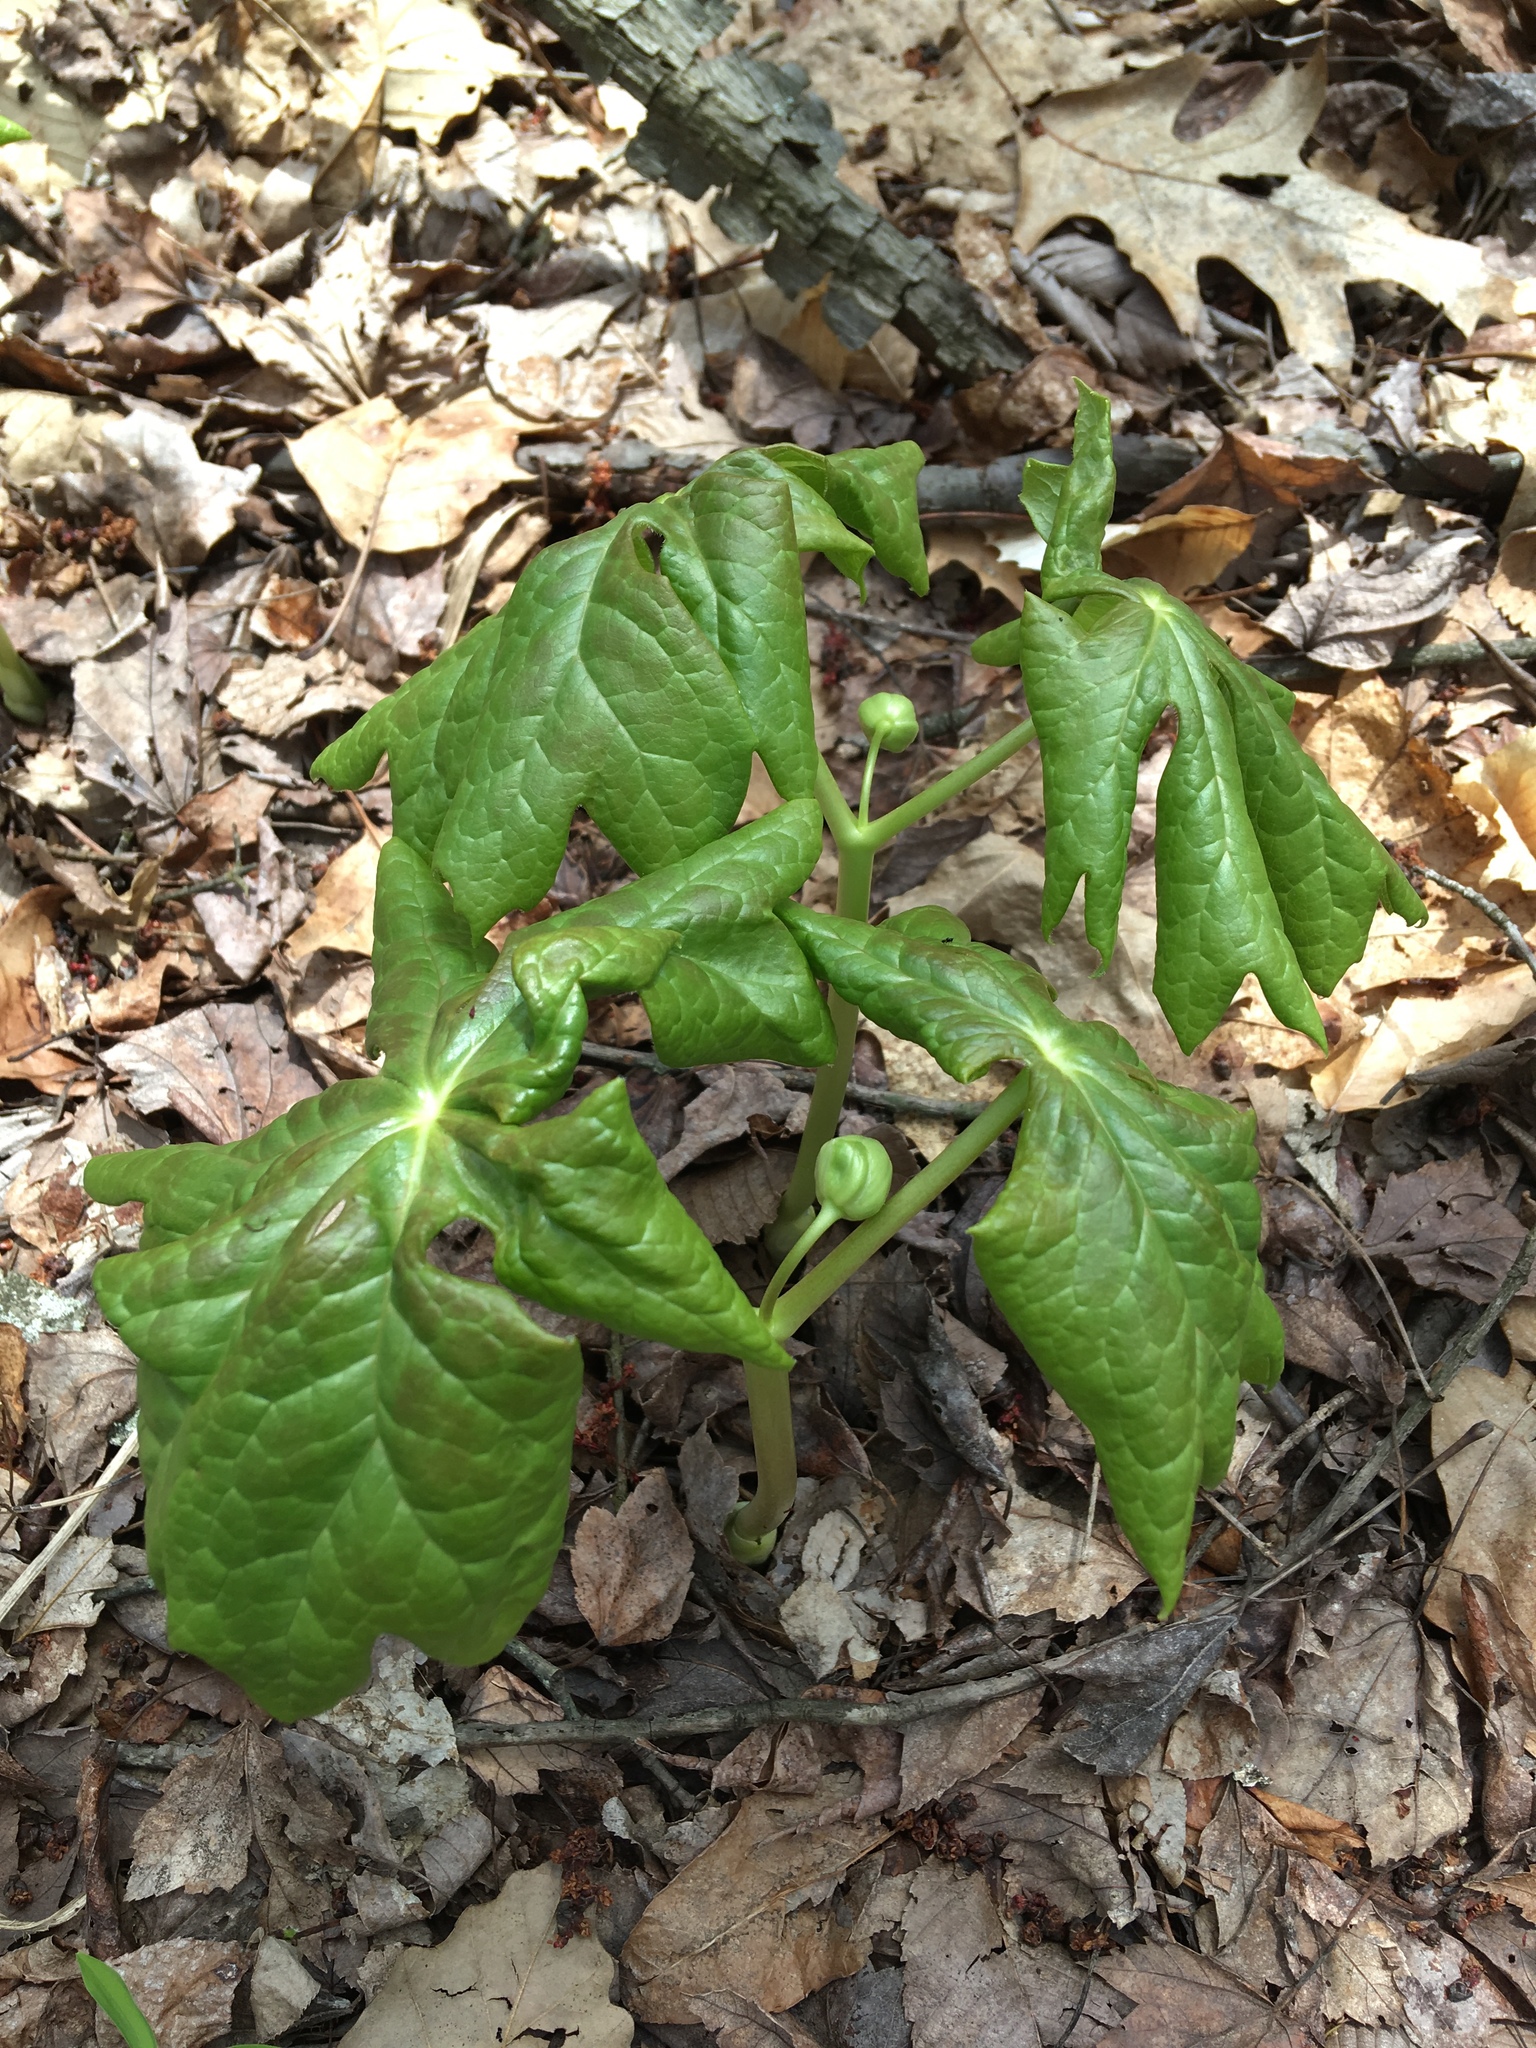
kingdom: Plantae
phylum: Tracheophyta
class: Magnoliopsida
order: Ranunculales
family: Berberidaceae
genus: Podophyllum
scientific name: Podophyllum peltatum
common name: Wild mandrake
